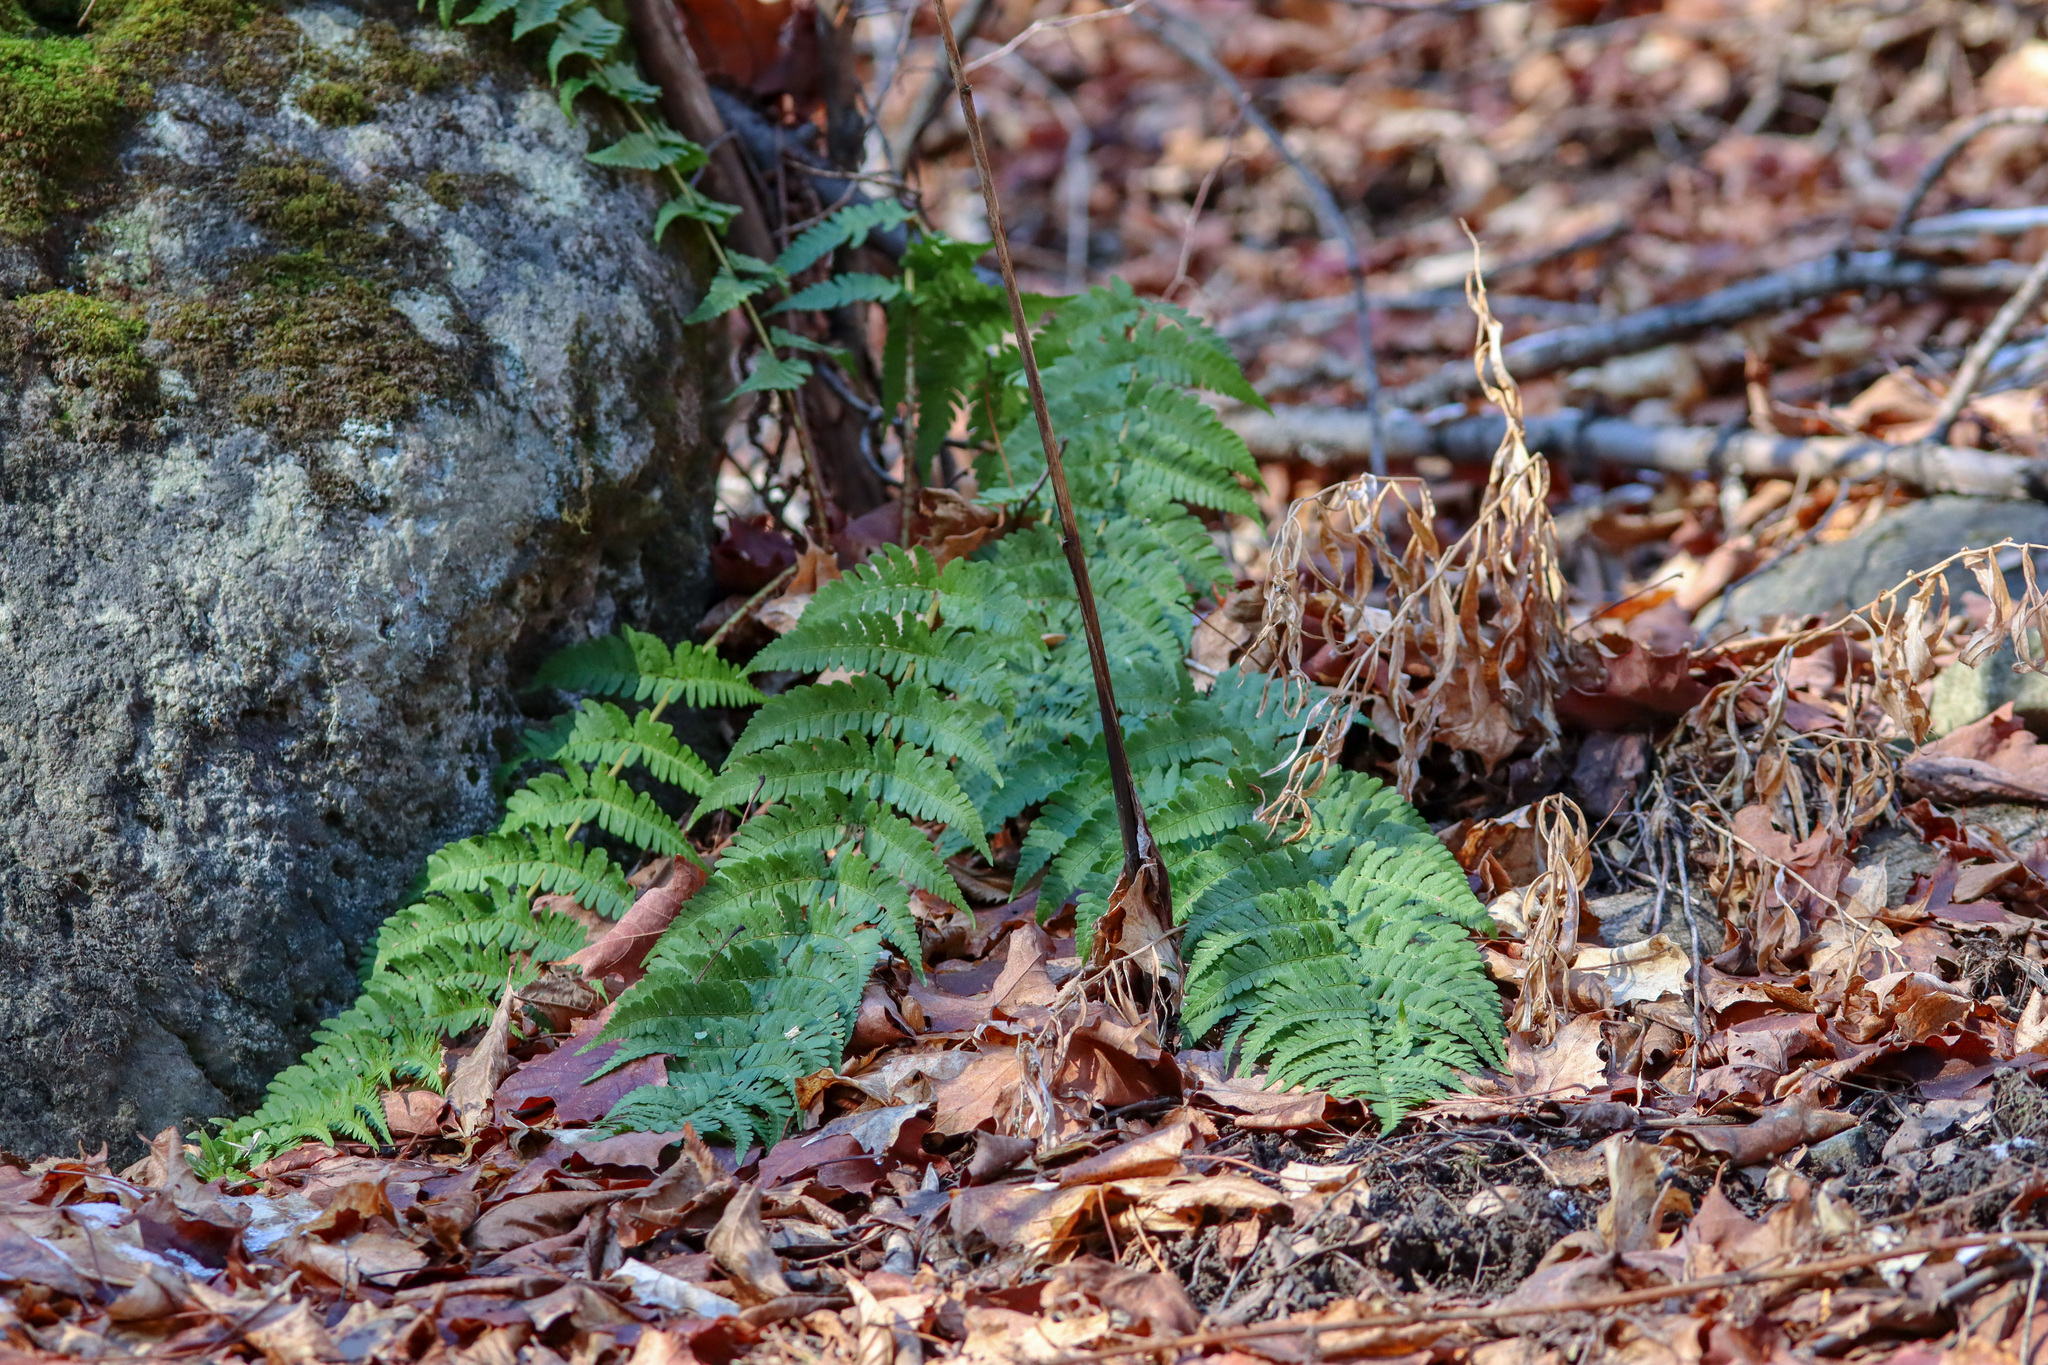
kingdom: Plantae
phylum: Tracheophyta
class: Polypodiopsida
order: Polypodiales
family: Dryopteridaceae
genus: Dryopteris
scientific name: Dryopteris marginalis
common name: Marginal wood fern
